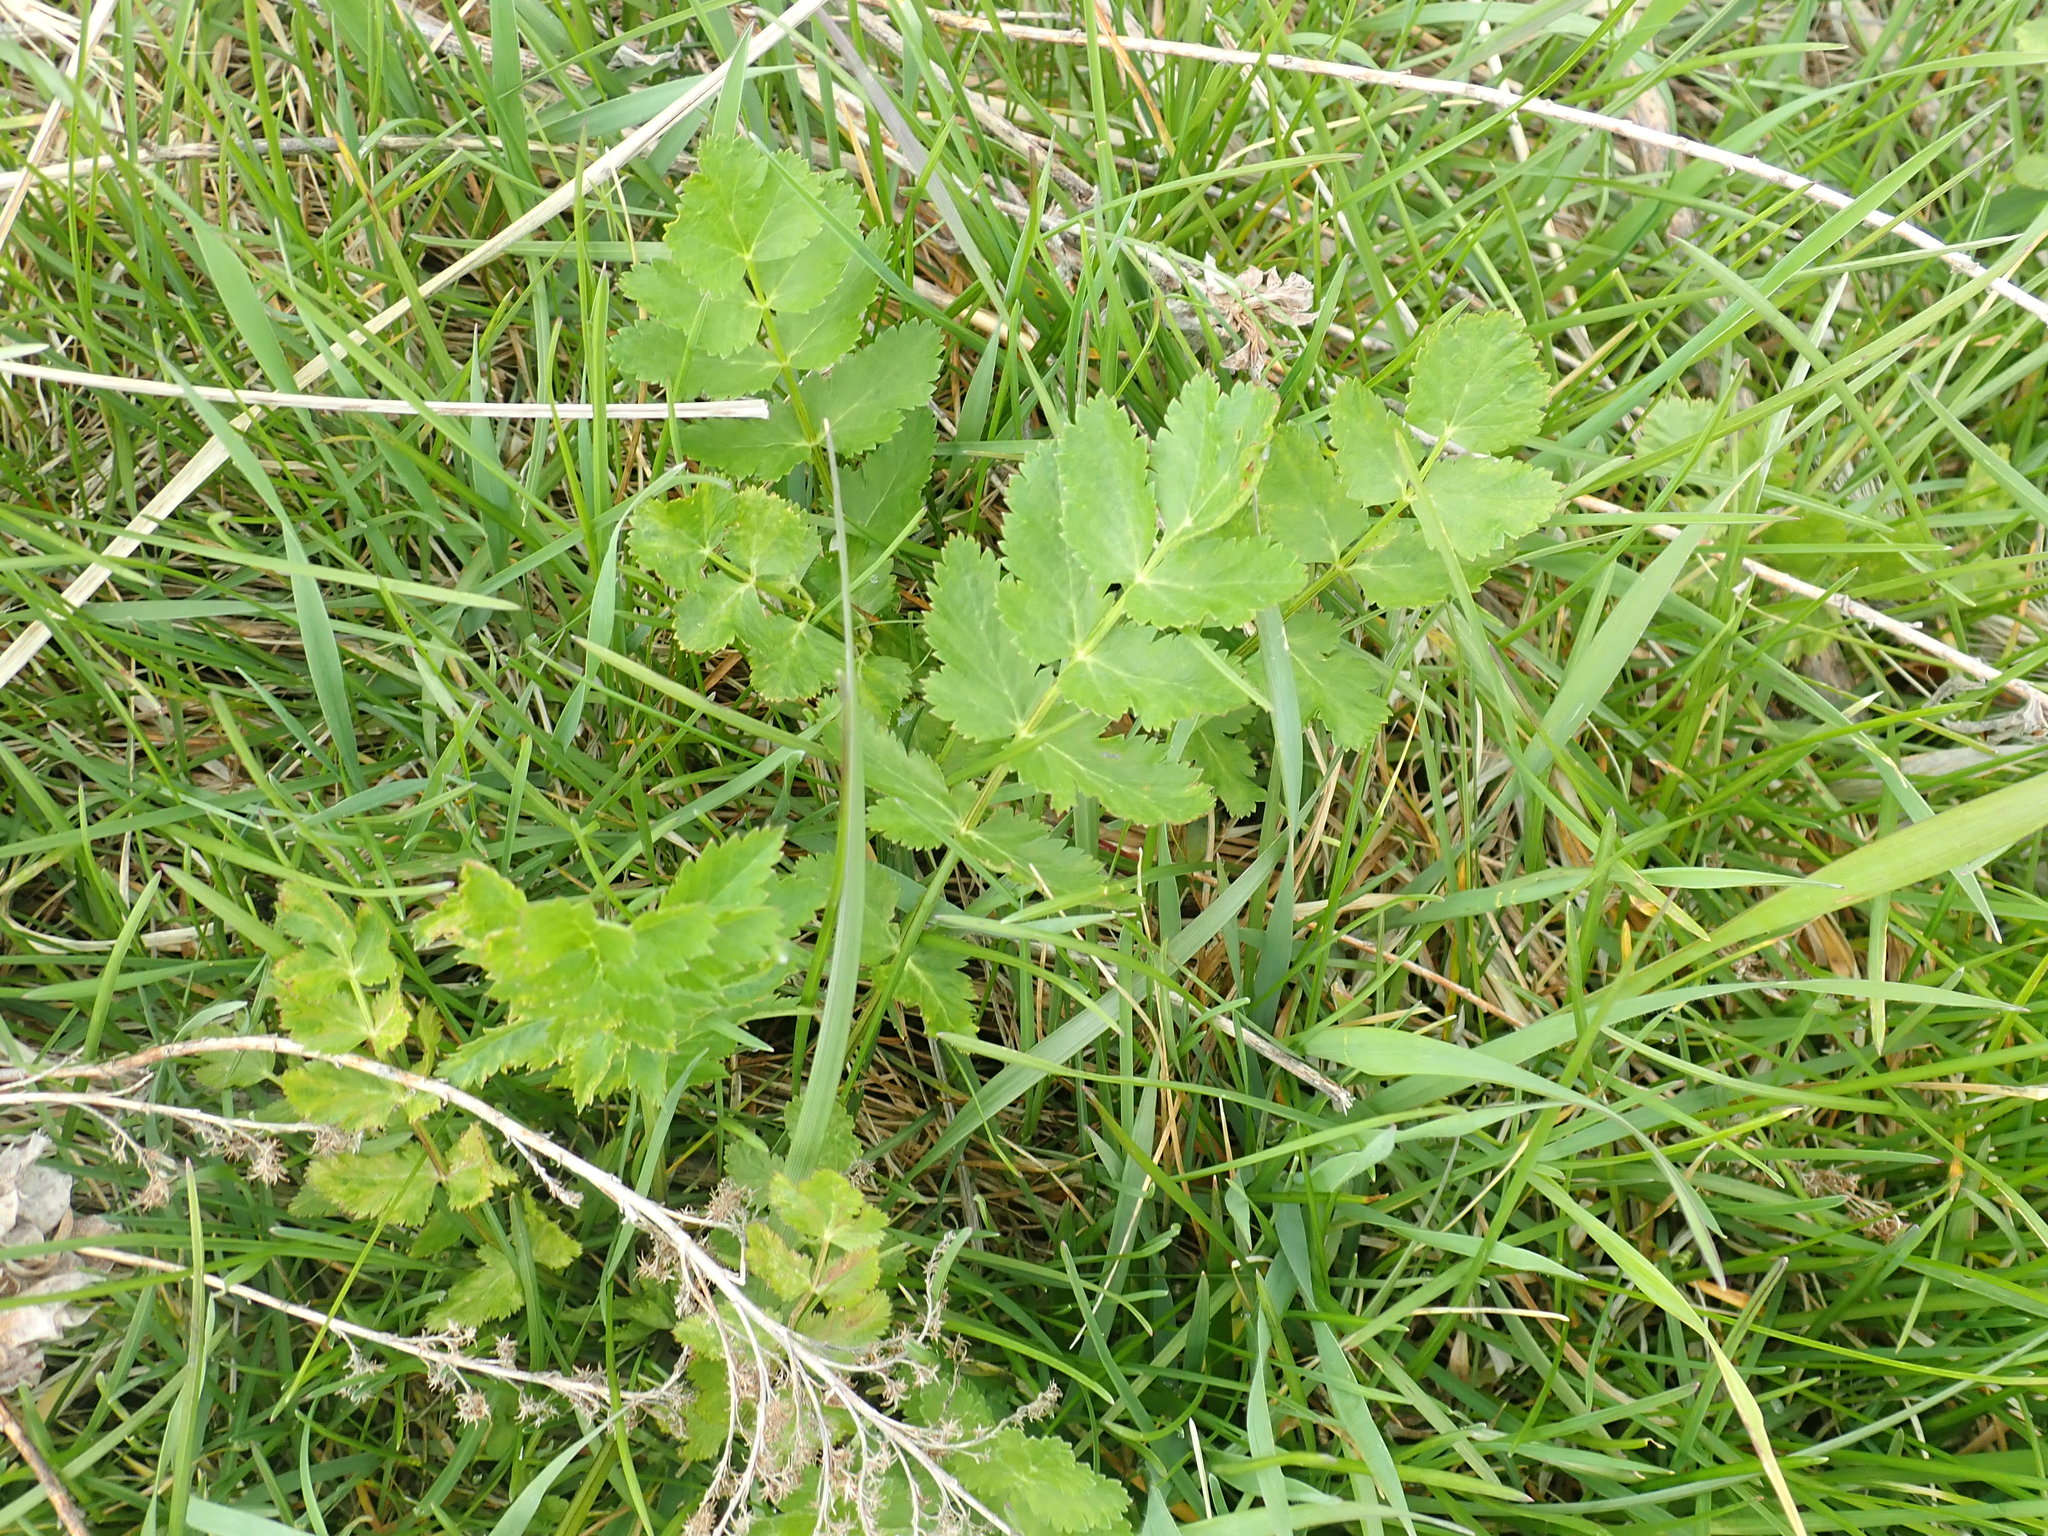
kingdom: Plantae
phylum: Tracheophyta
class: Magnoliopsida
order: Apiales
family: Apiaceae
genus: Pastinaca
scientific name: Pastinaca sativa
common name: Wild parsnip
